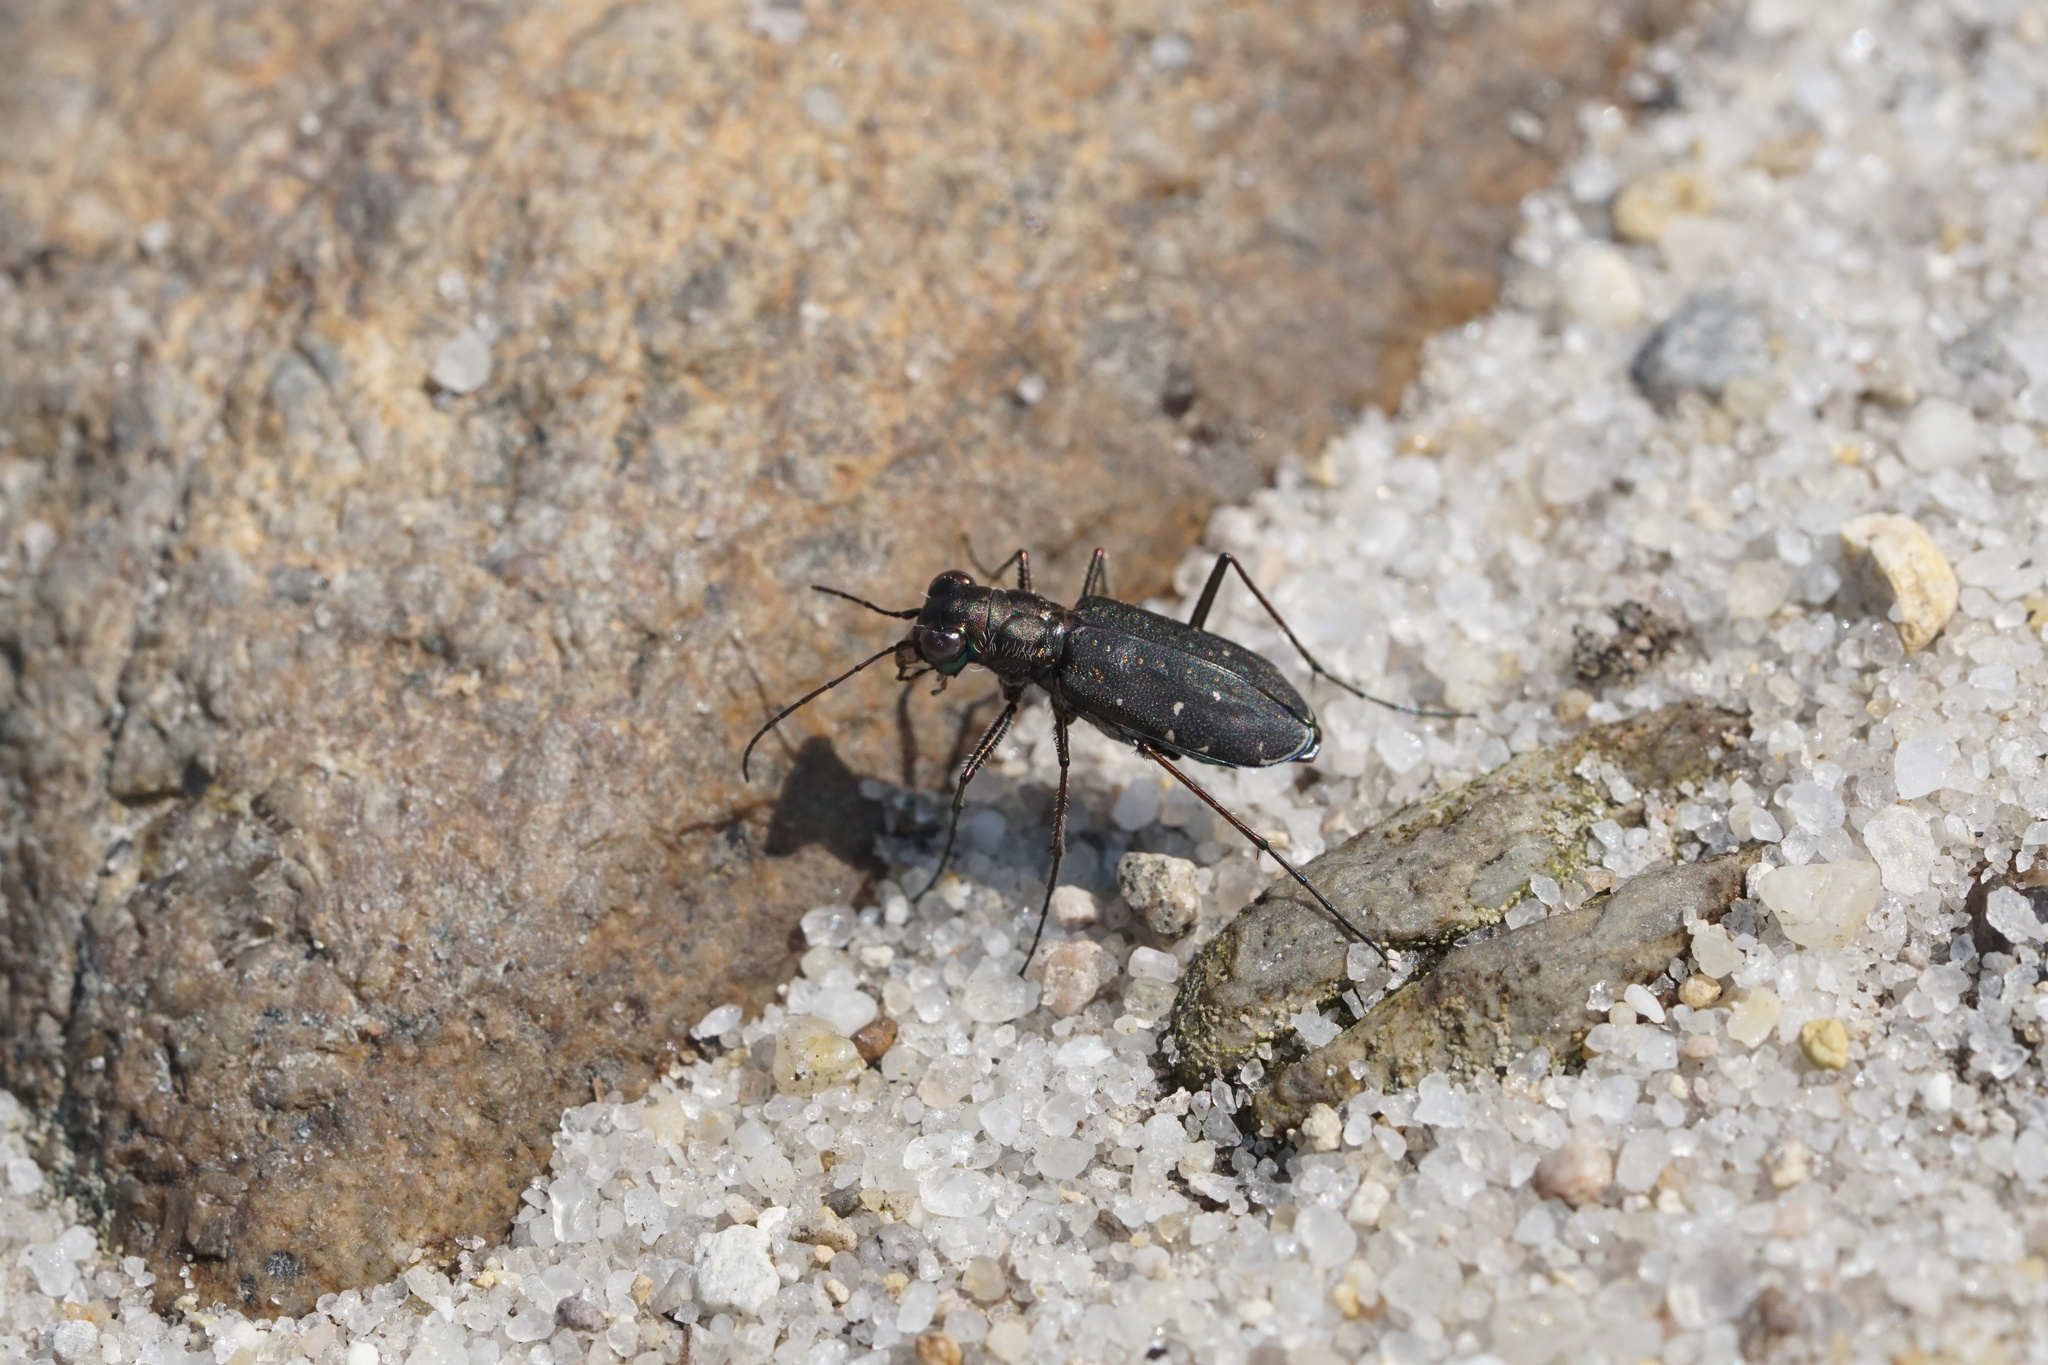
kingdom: Animalia
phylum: Arthropoda
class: Insecta
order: Coleoptera
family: Carabidae
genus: Cicindela
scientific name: Cicindela punctulata
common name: Punctured tiger beetle
